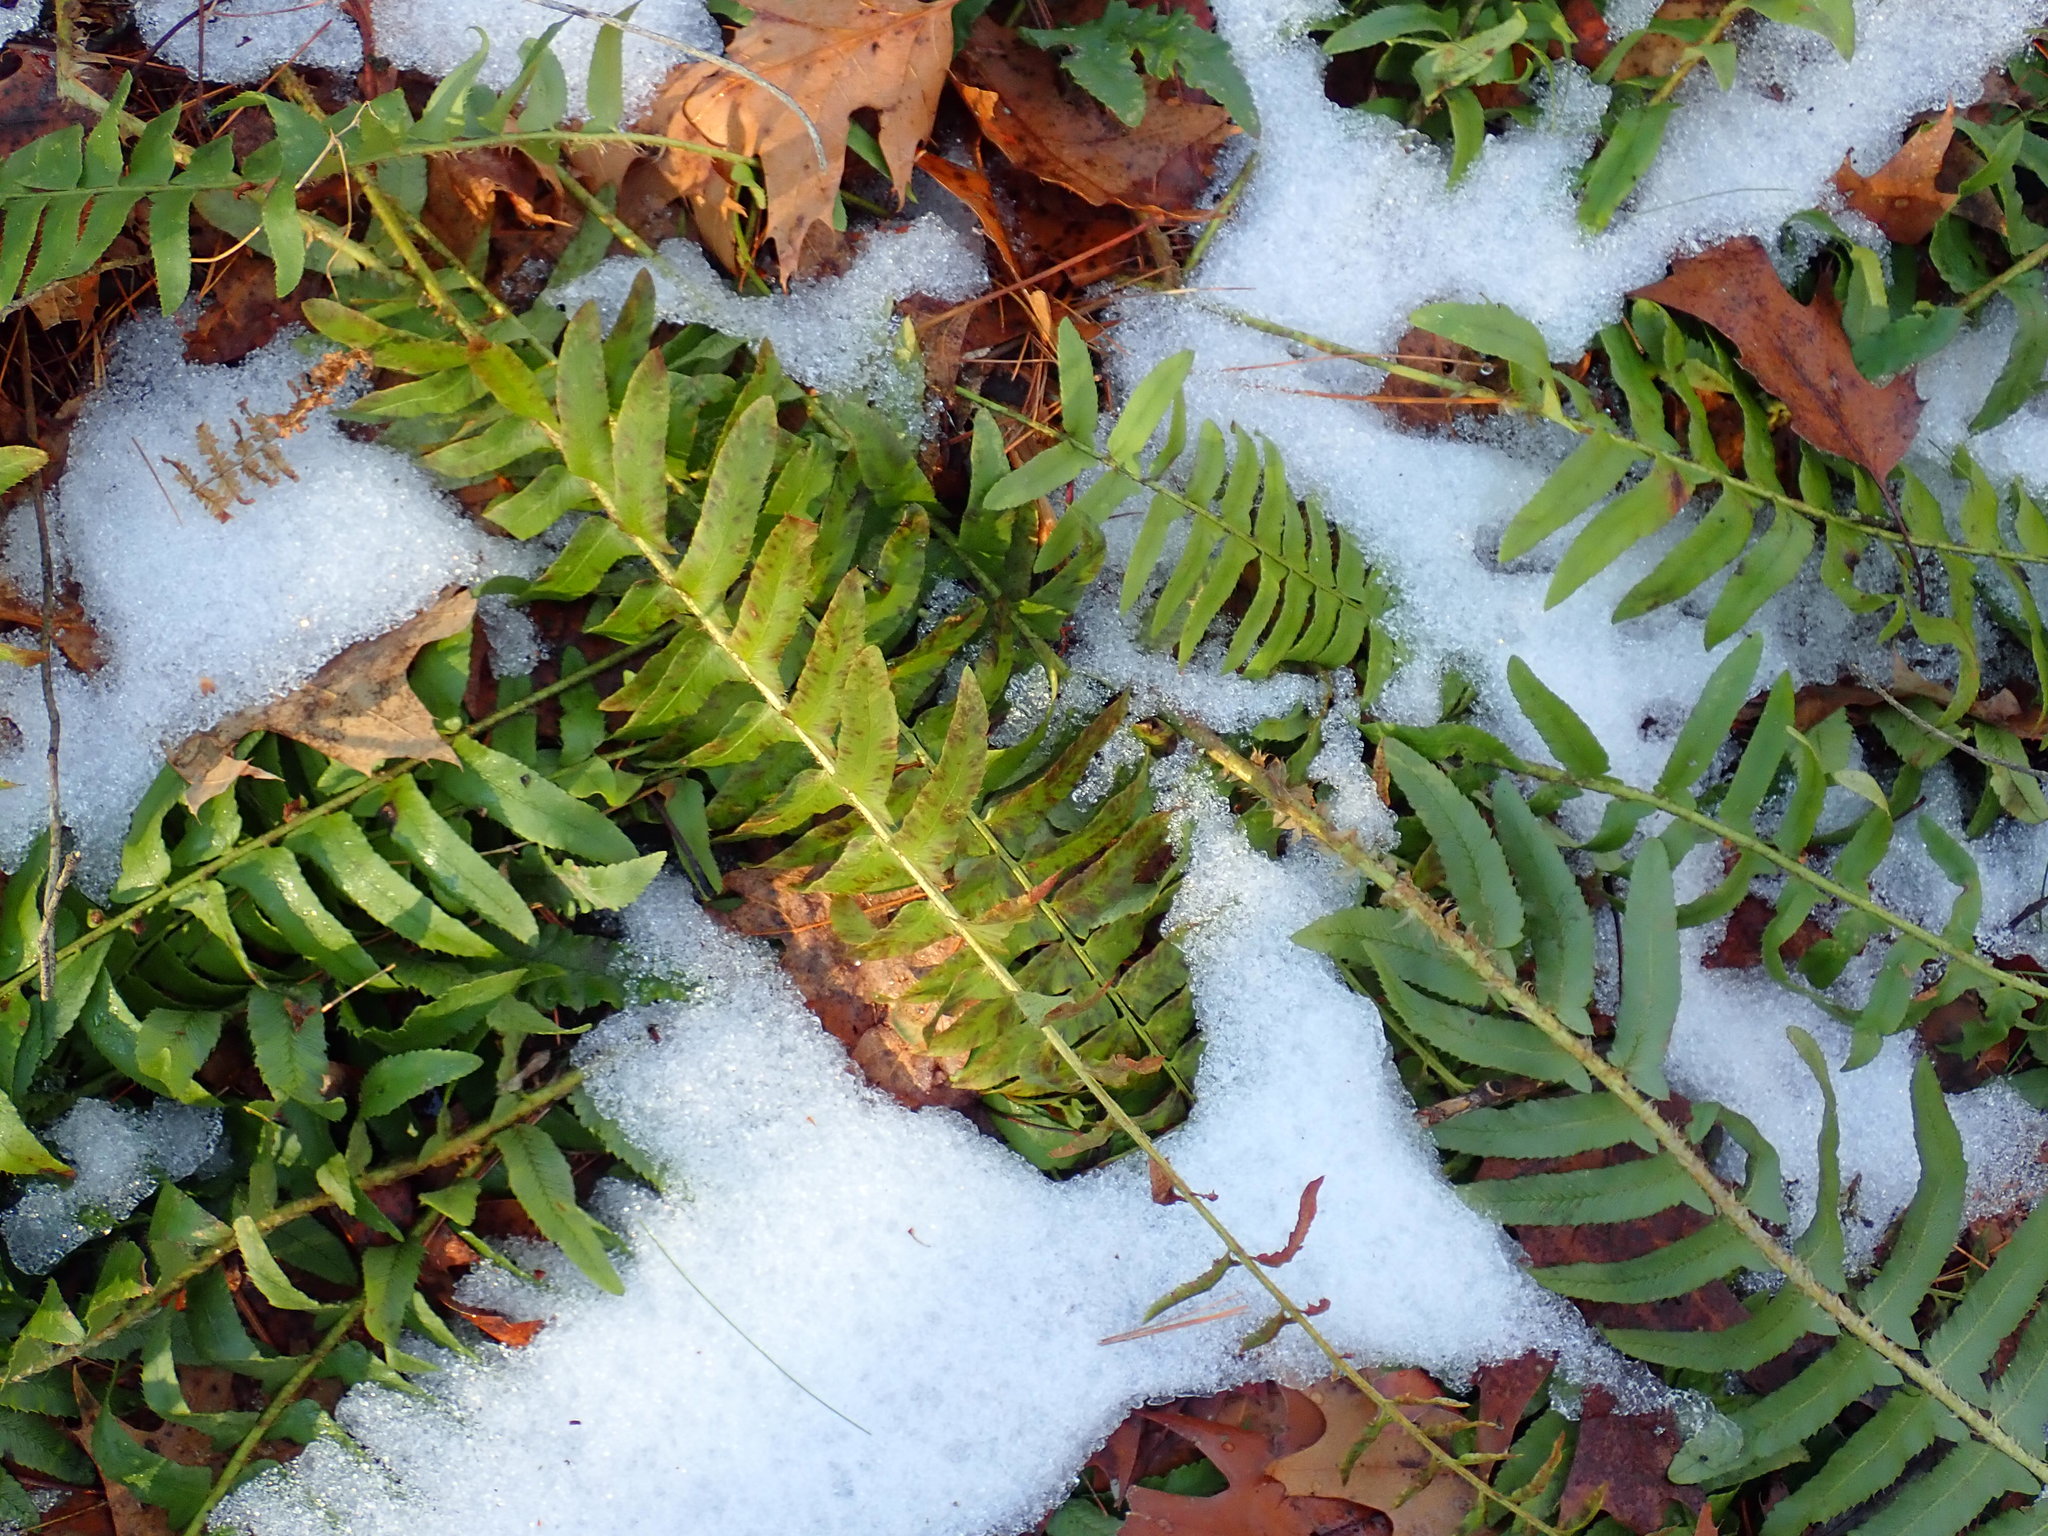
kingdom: Plantae
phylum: Tracheophyta
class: Polypodiopsida
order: Polypodiales
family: Dryopteridaceae
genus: Polystichum
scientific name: Polystichum acrostichoides
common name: Christmas fern
